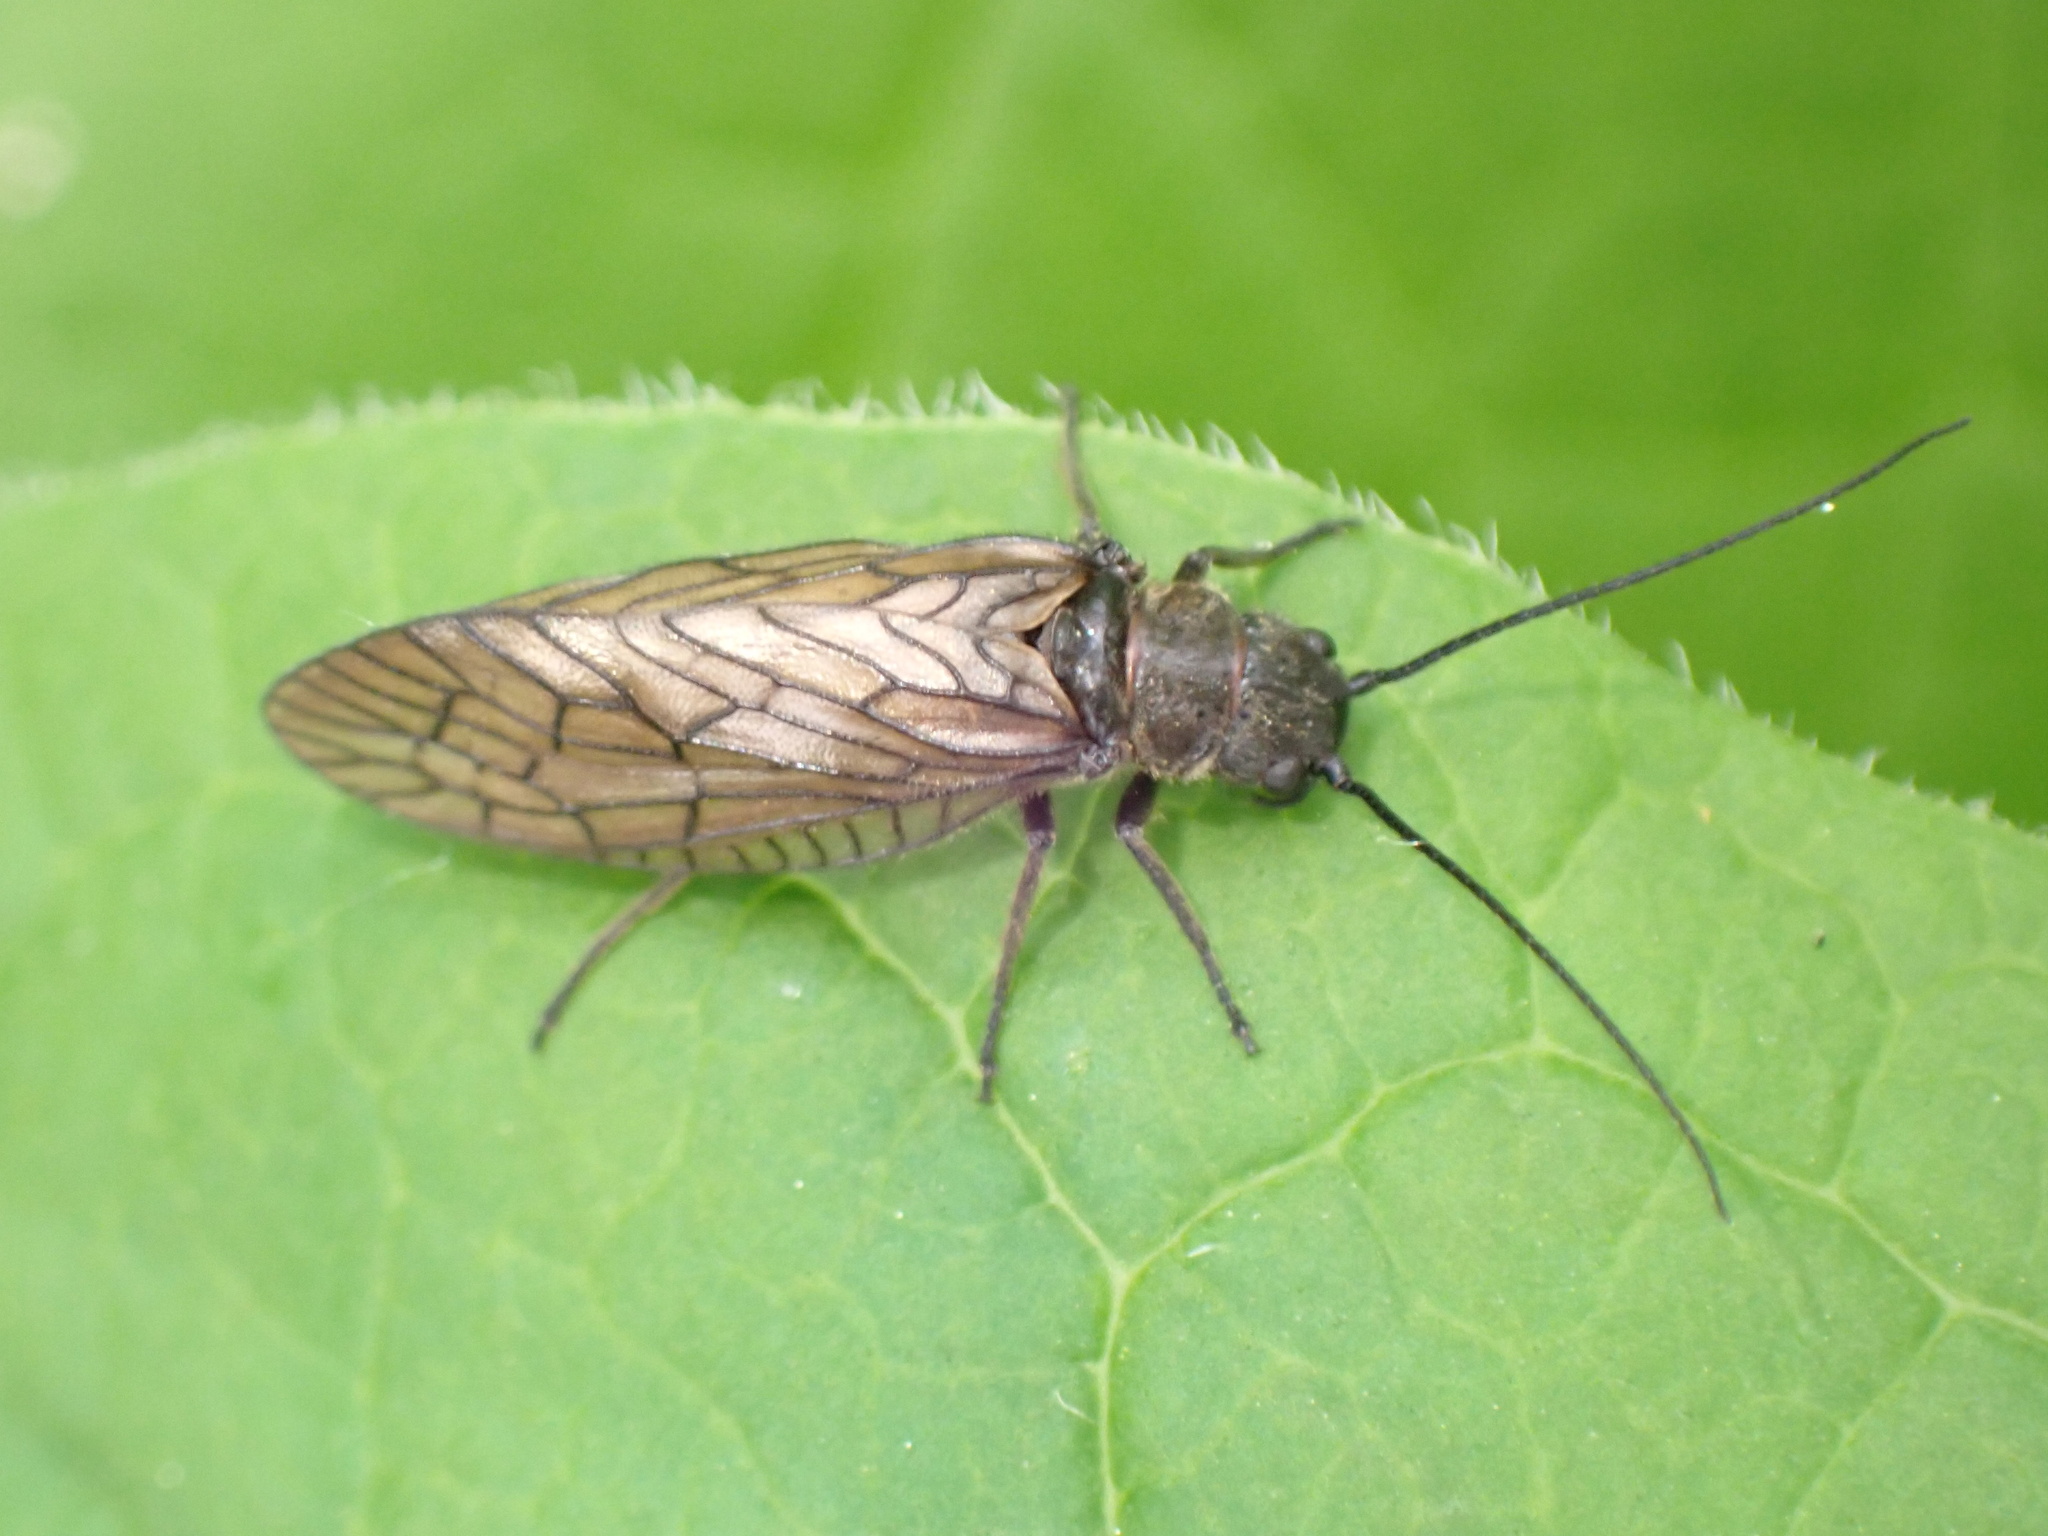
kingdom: Animalia
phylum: Arthropoda
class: Insecta
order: Megaloptera
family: Sialidae
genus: Sialis
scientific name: Sialis
